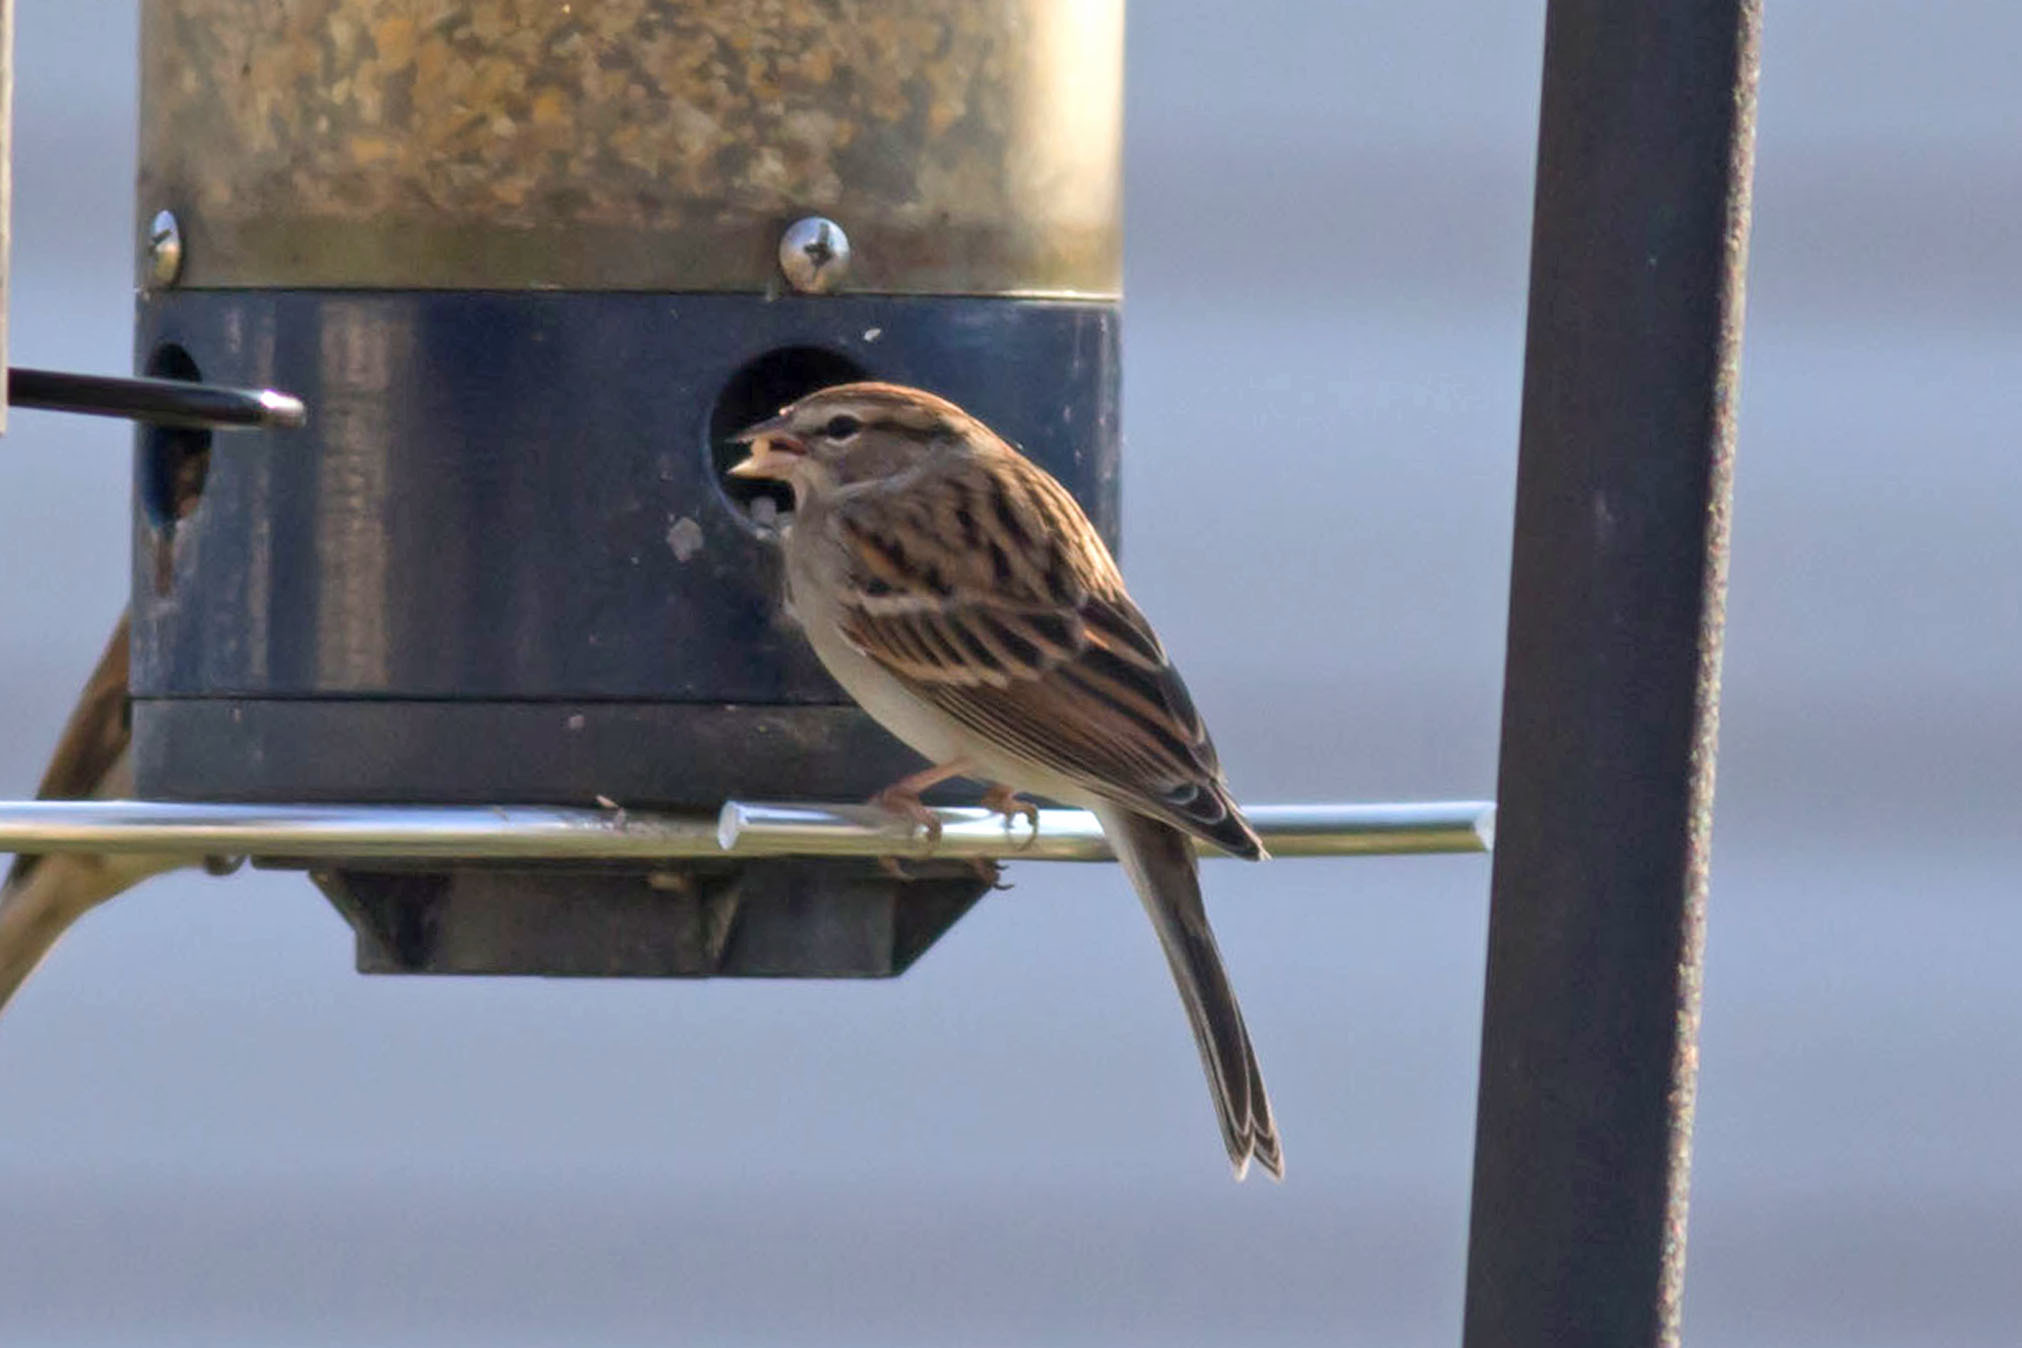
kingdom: Animalia
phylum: Chordata
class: Aves
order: Passeriformes
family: Passerellidae
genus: Spizella
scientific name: Spizella passerina
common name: Chipping sparrow
